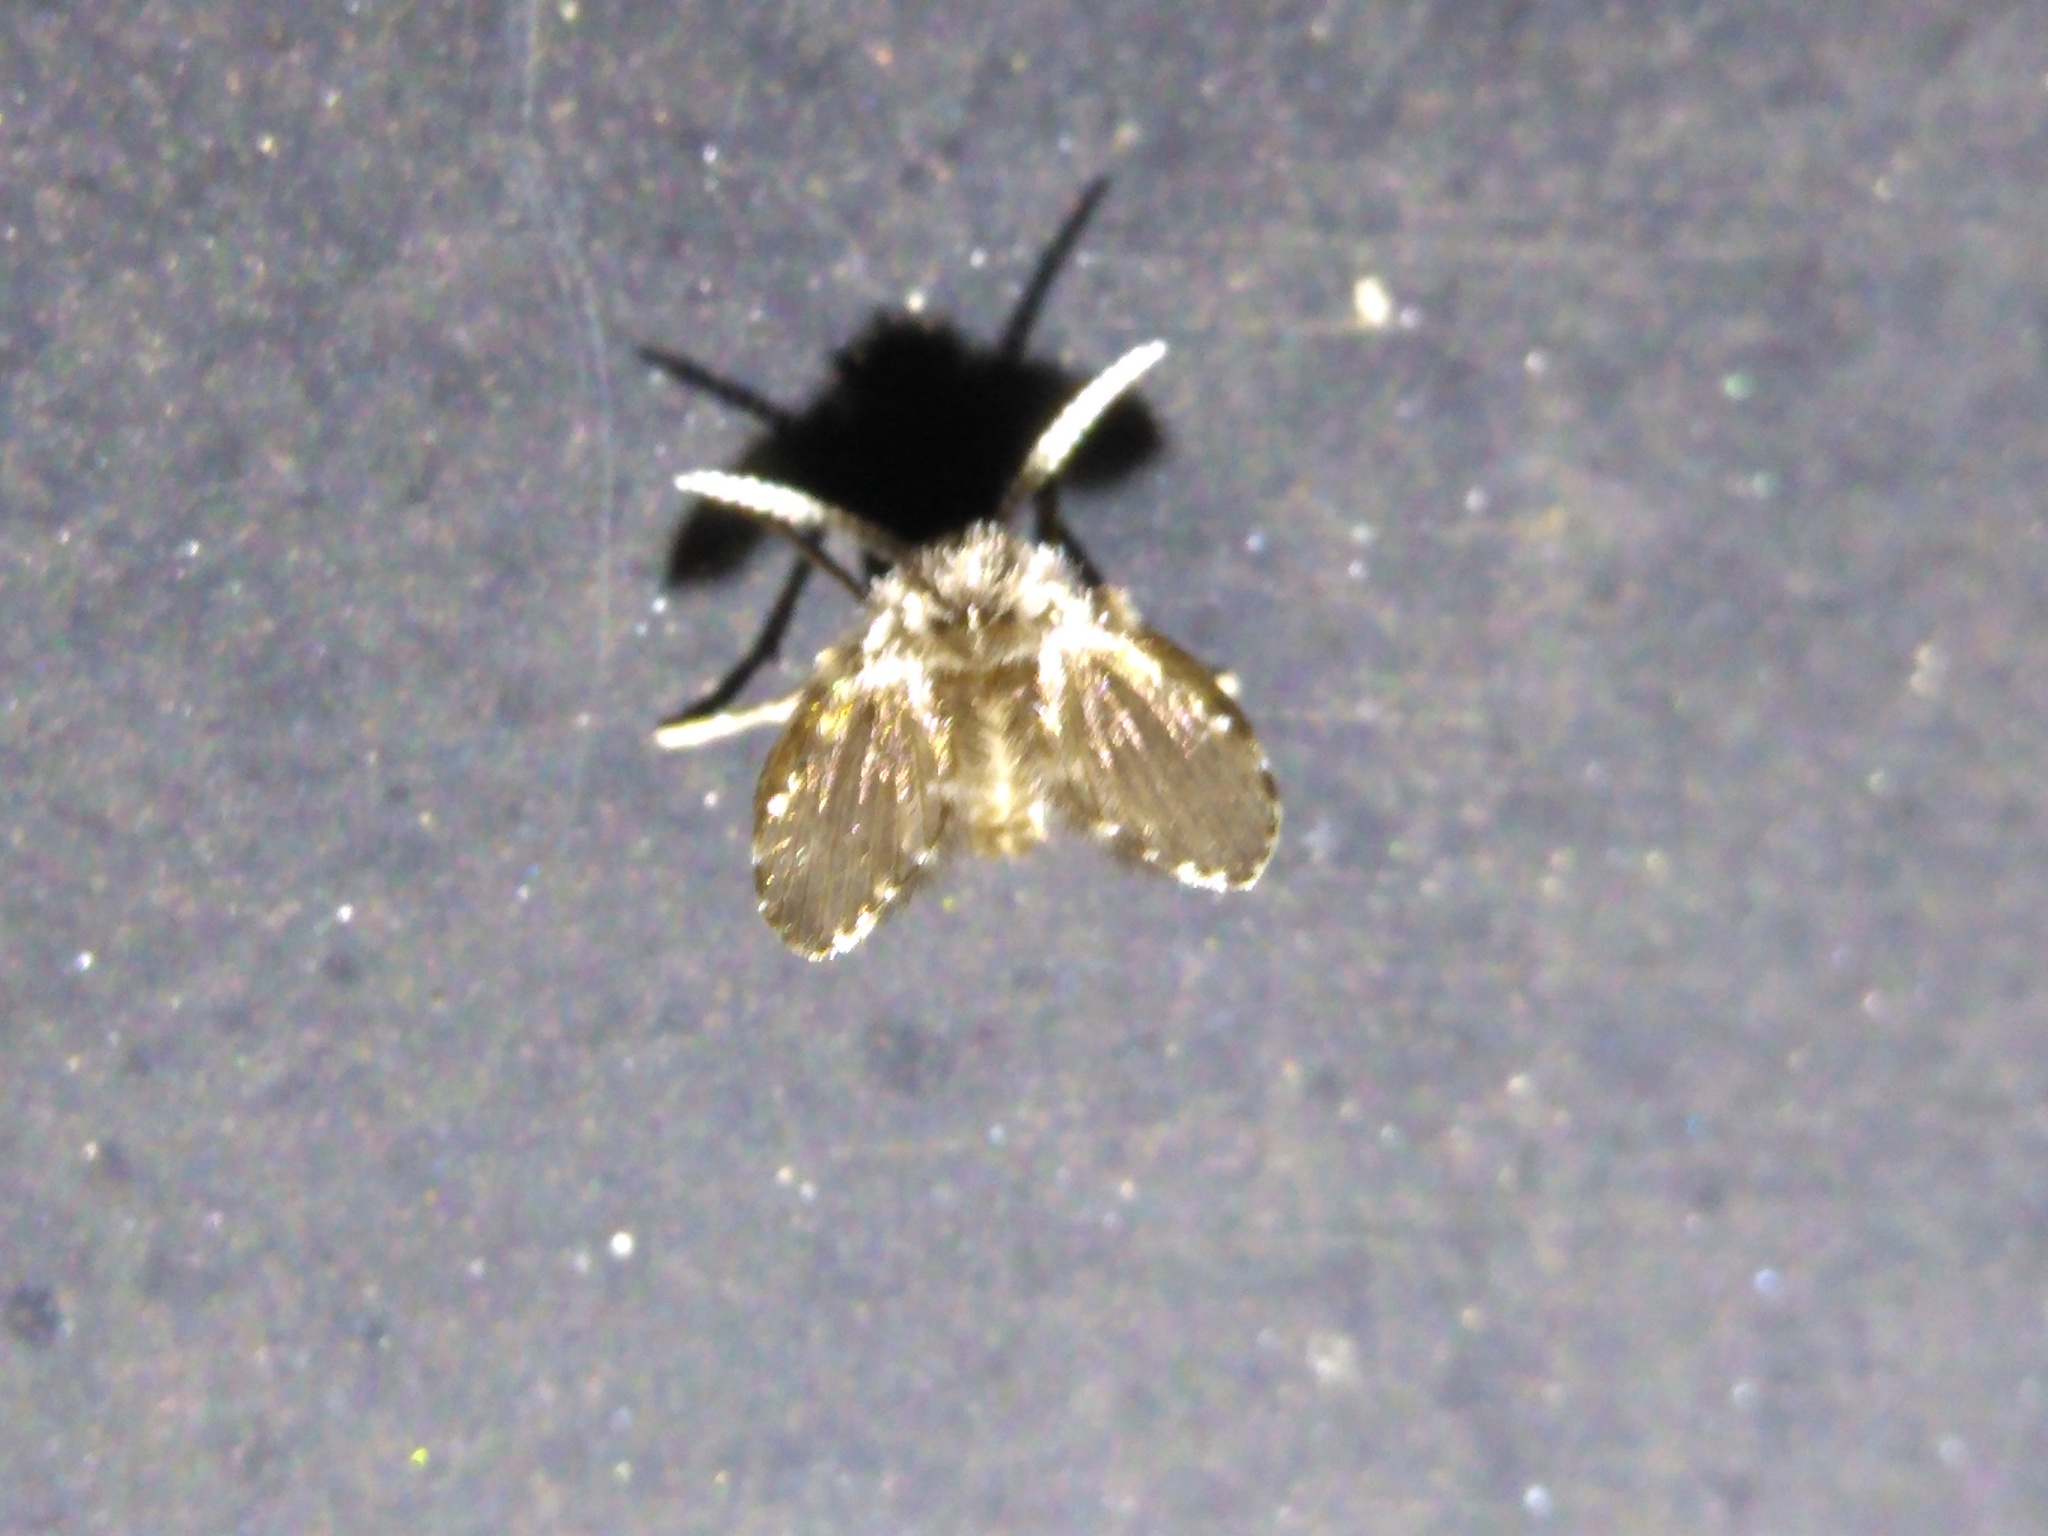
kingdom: Animalia
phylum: Arthropoda
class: Insecta
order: Diptera
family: Psychodidae
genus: Clogmia
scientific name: Clogmia albipunctatus
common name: White-spotted moth fly
